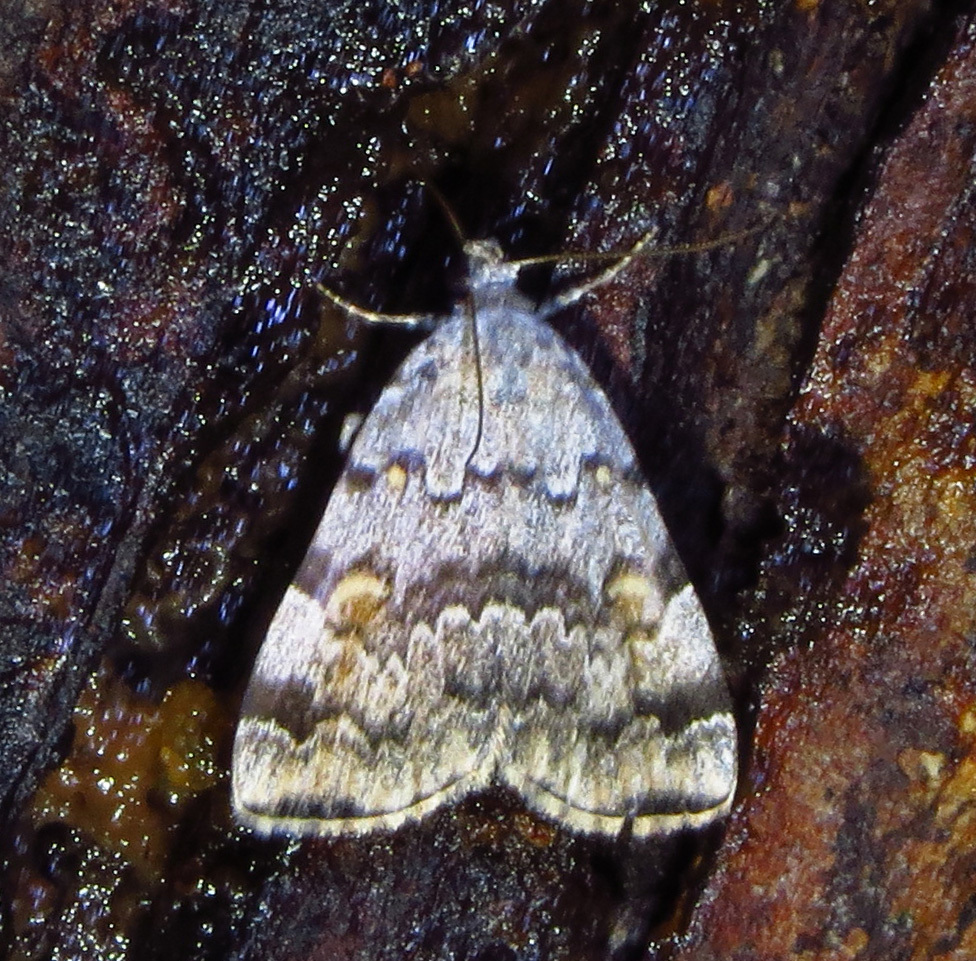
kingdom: Animalia
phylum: Arthropoda
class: Insecta
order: Lepidoptera
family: Erebidae
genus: Idia
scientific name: Idia americalis
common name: American idia moth
